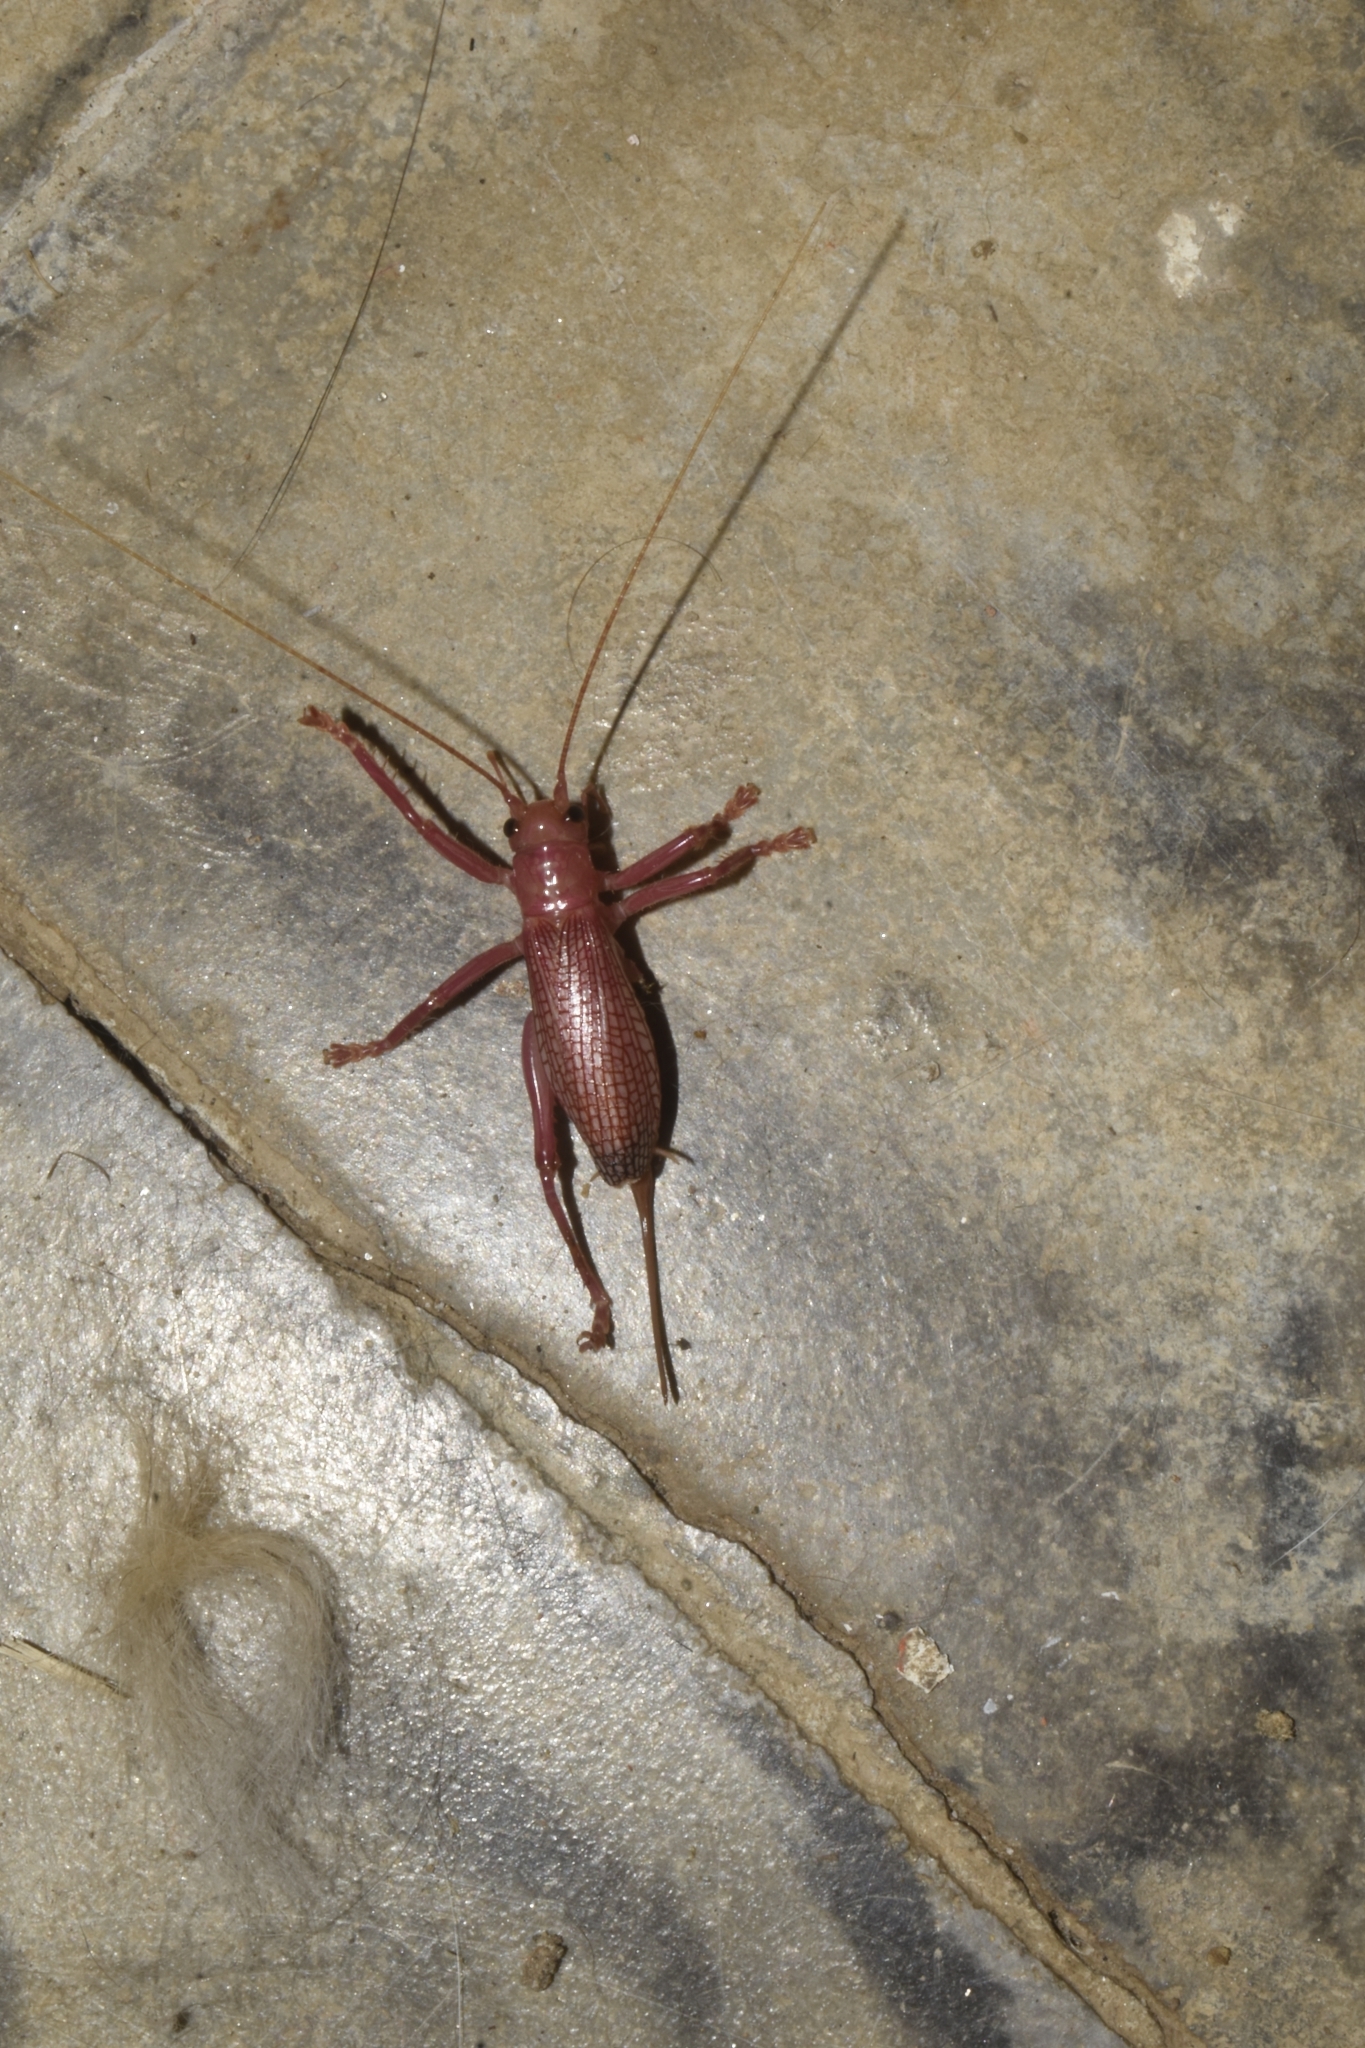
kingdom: Animalia
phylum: Arthropoda
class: Insecta
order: Orthoptera
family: Gryllacrididae
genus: Caudafistulus
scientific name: Caudafistulus rubrinervosus
